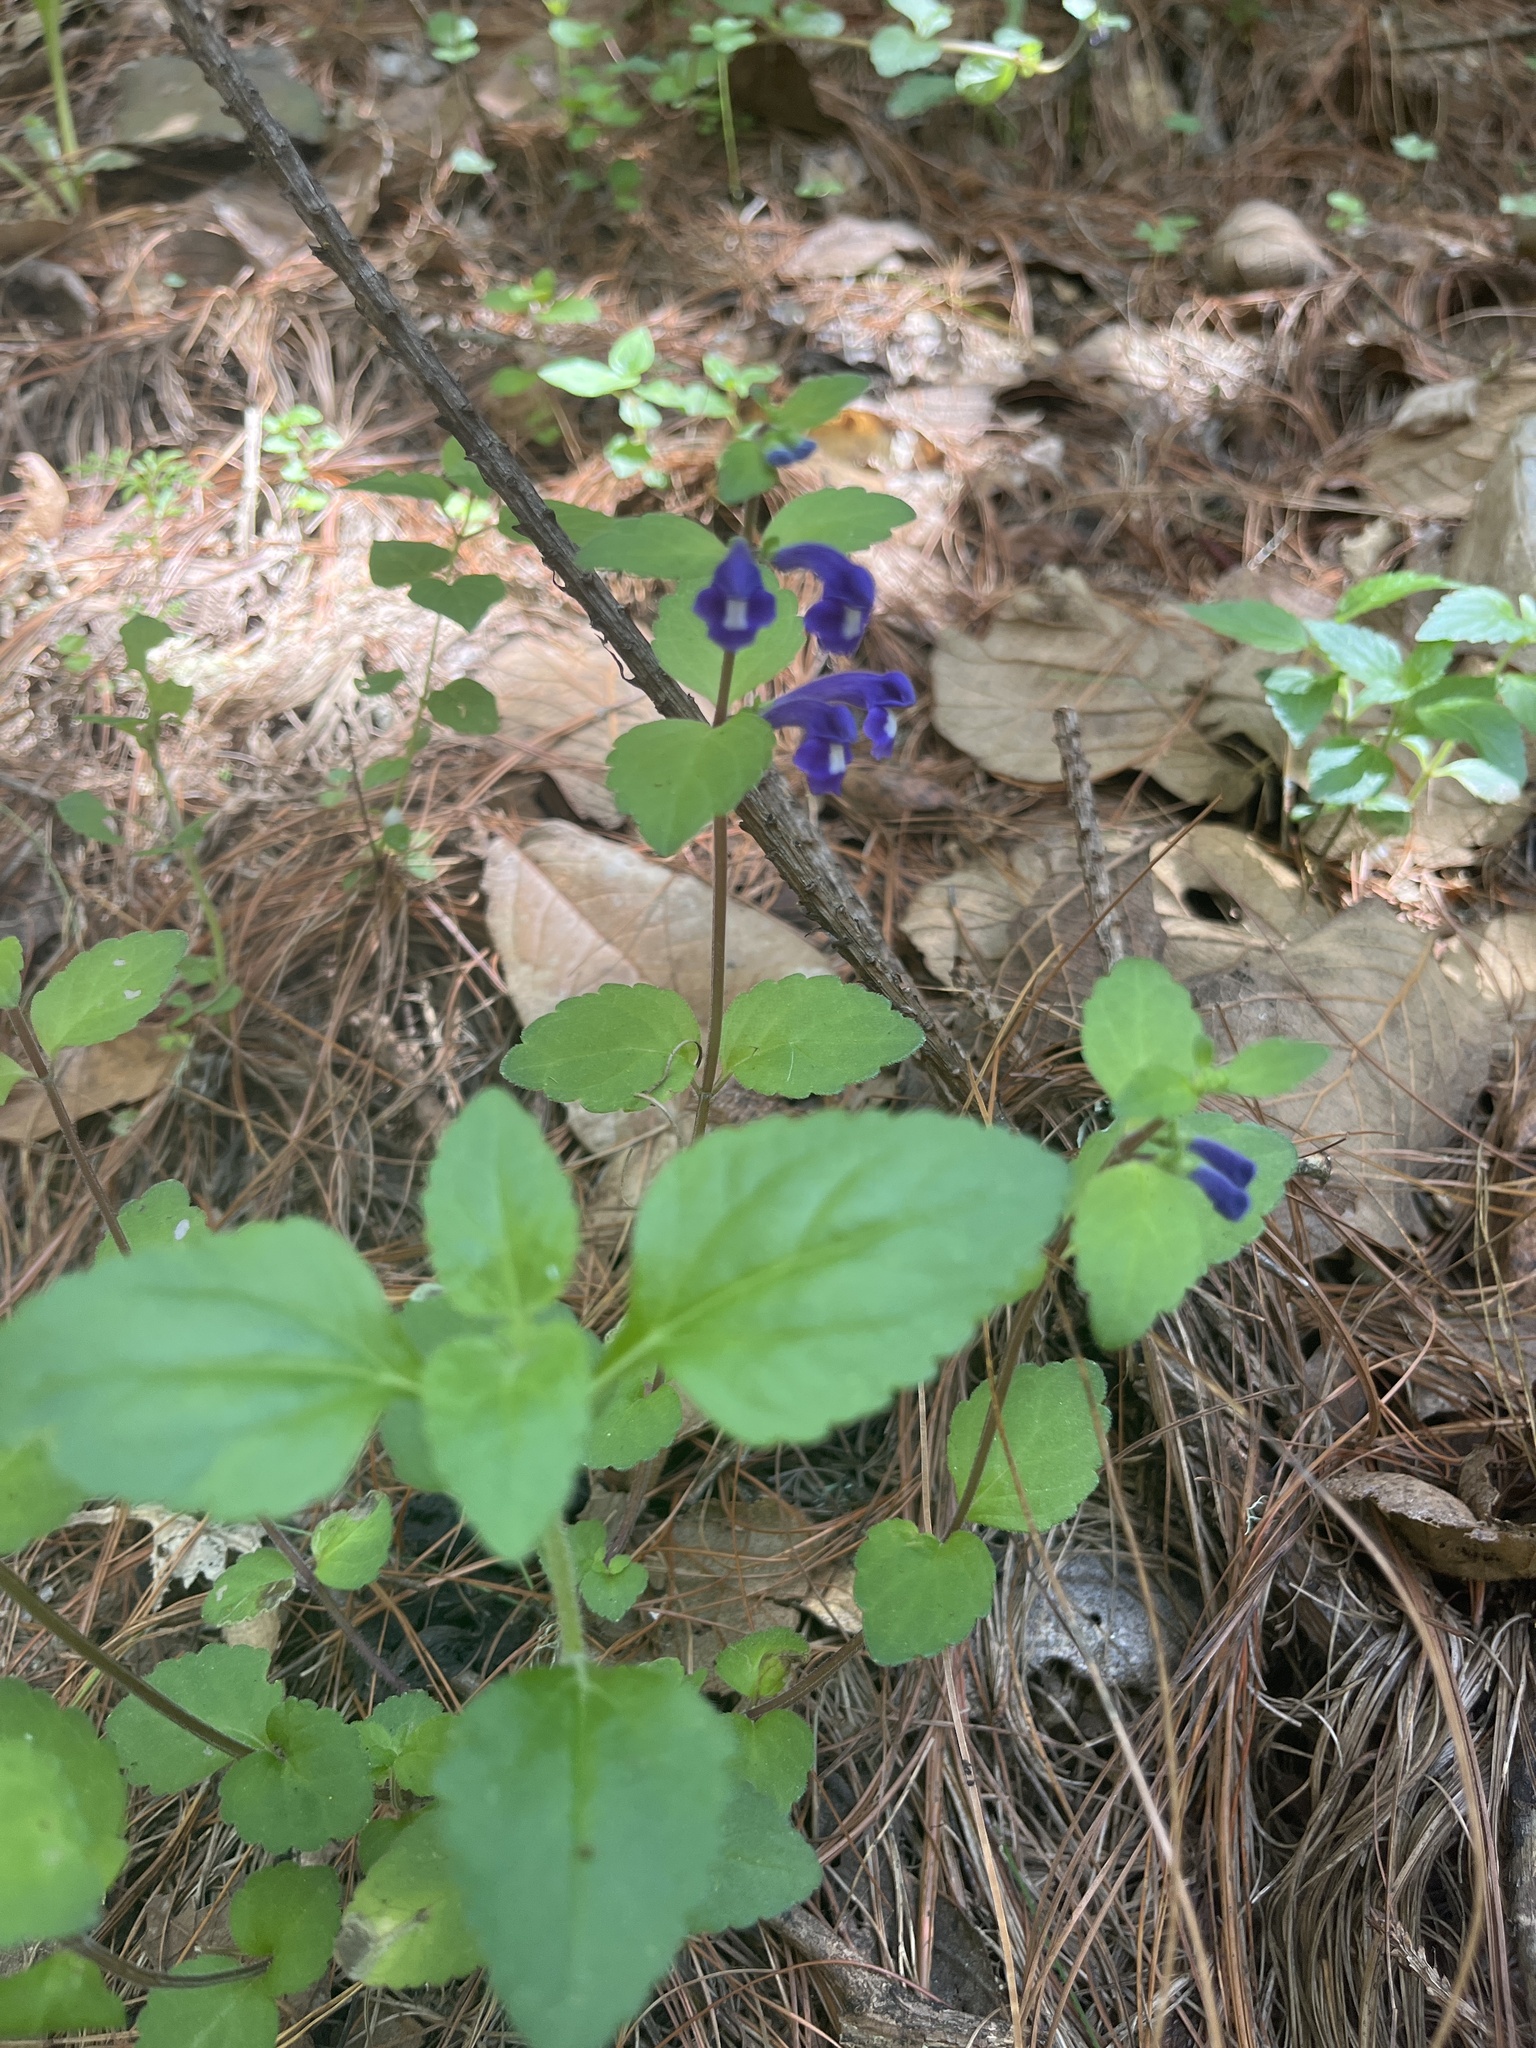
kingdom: Plantae
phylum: Tracheophyta
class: Magnoliopsida
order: Lamiales
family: Lamiaceae
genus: Scutellaria
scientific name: Scutellaria dumetorum
